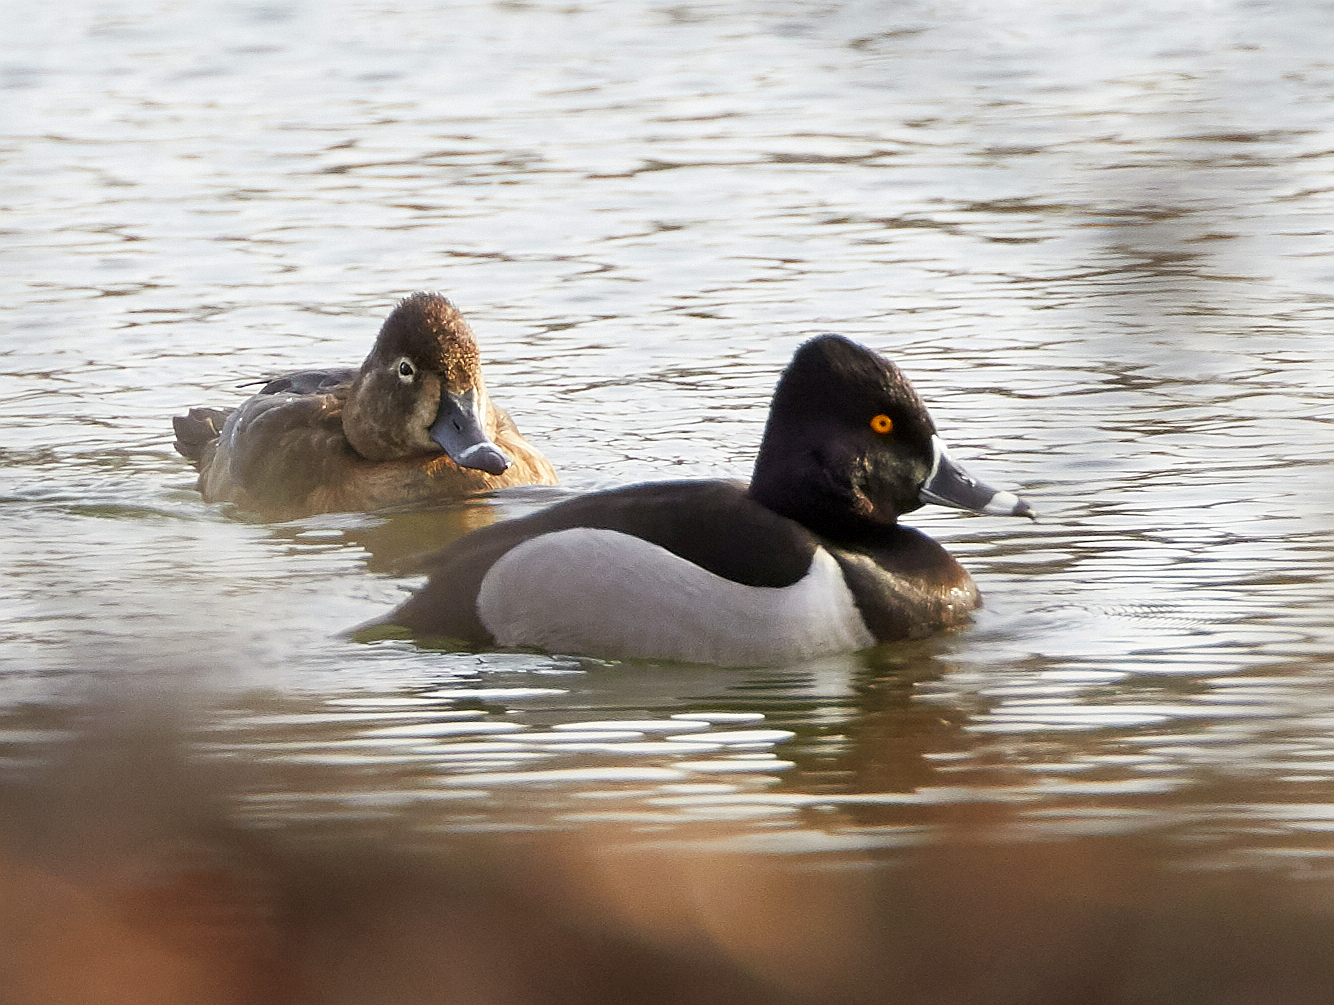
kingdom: Animalia
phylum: Chordata
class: Aves
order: Anseriformes
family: Anatidae
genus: Aythya
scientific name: Aythya collaris
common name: Ring-necked duck
